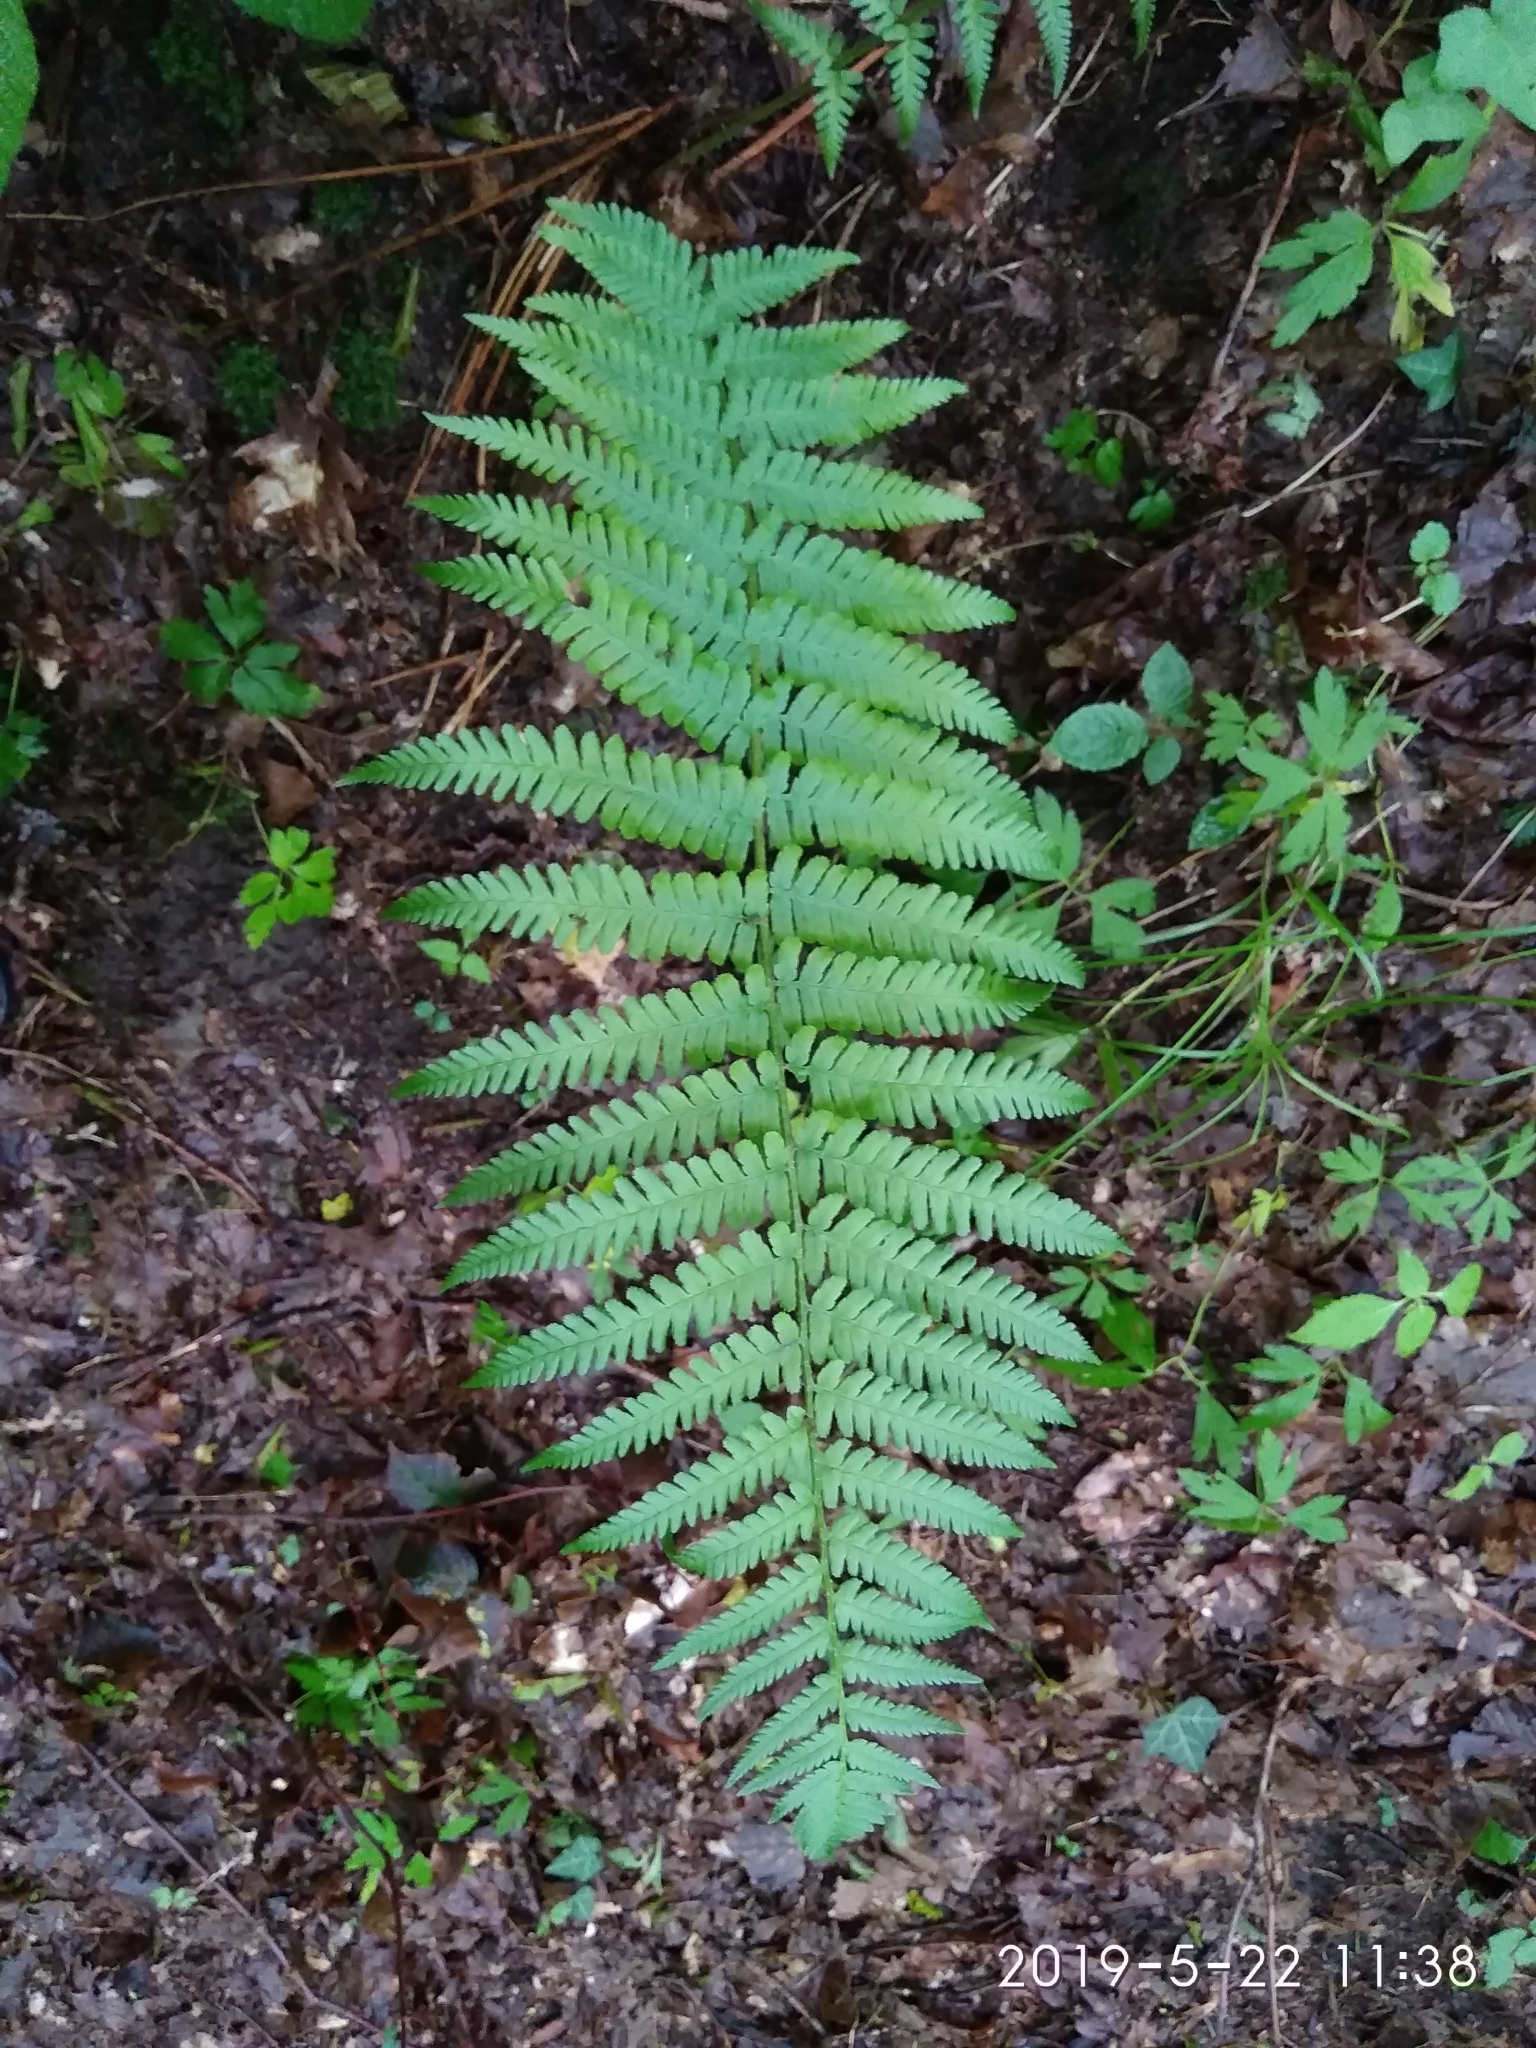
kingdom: Plantae
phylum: Tracheophyta
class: Polypodiopsida
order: Polypodiales
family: Dryopteridaceae
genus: Dryopteris
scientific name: Dryopteris filix-mas
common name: Male fern
